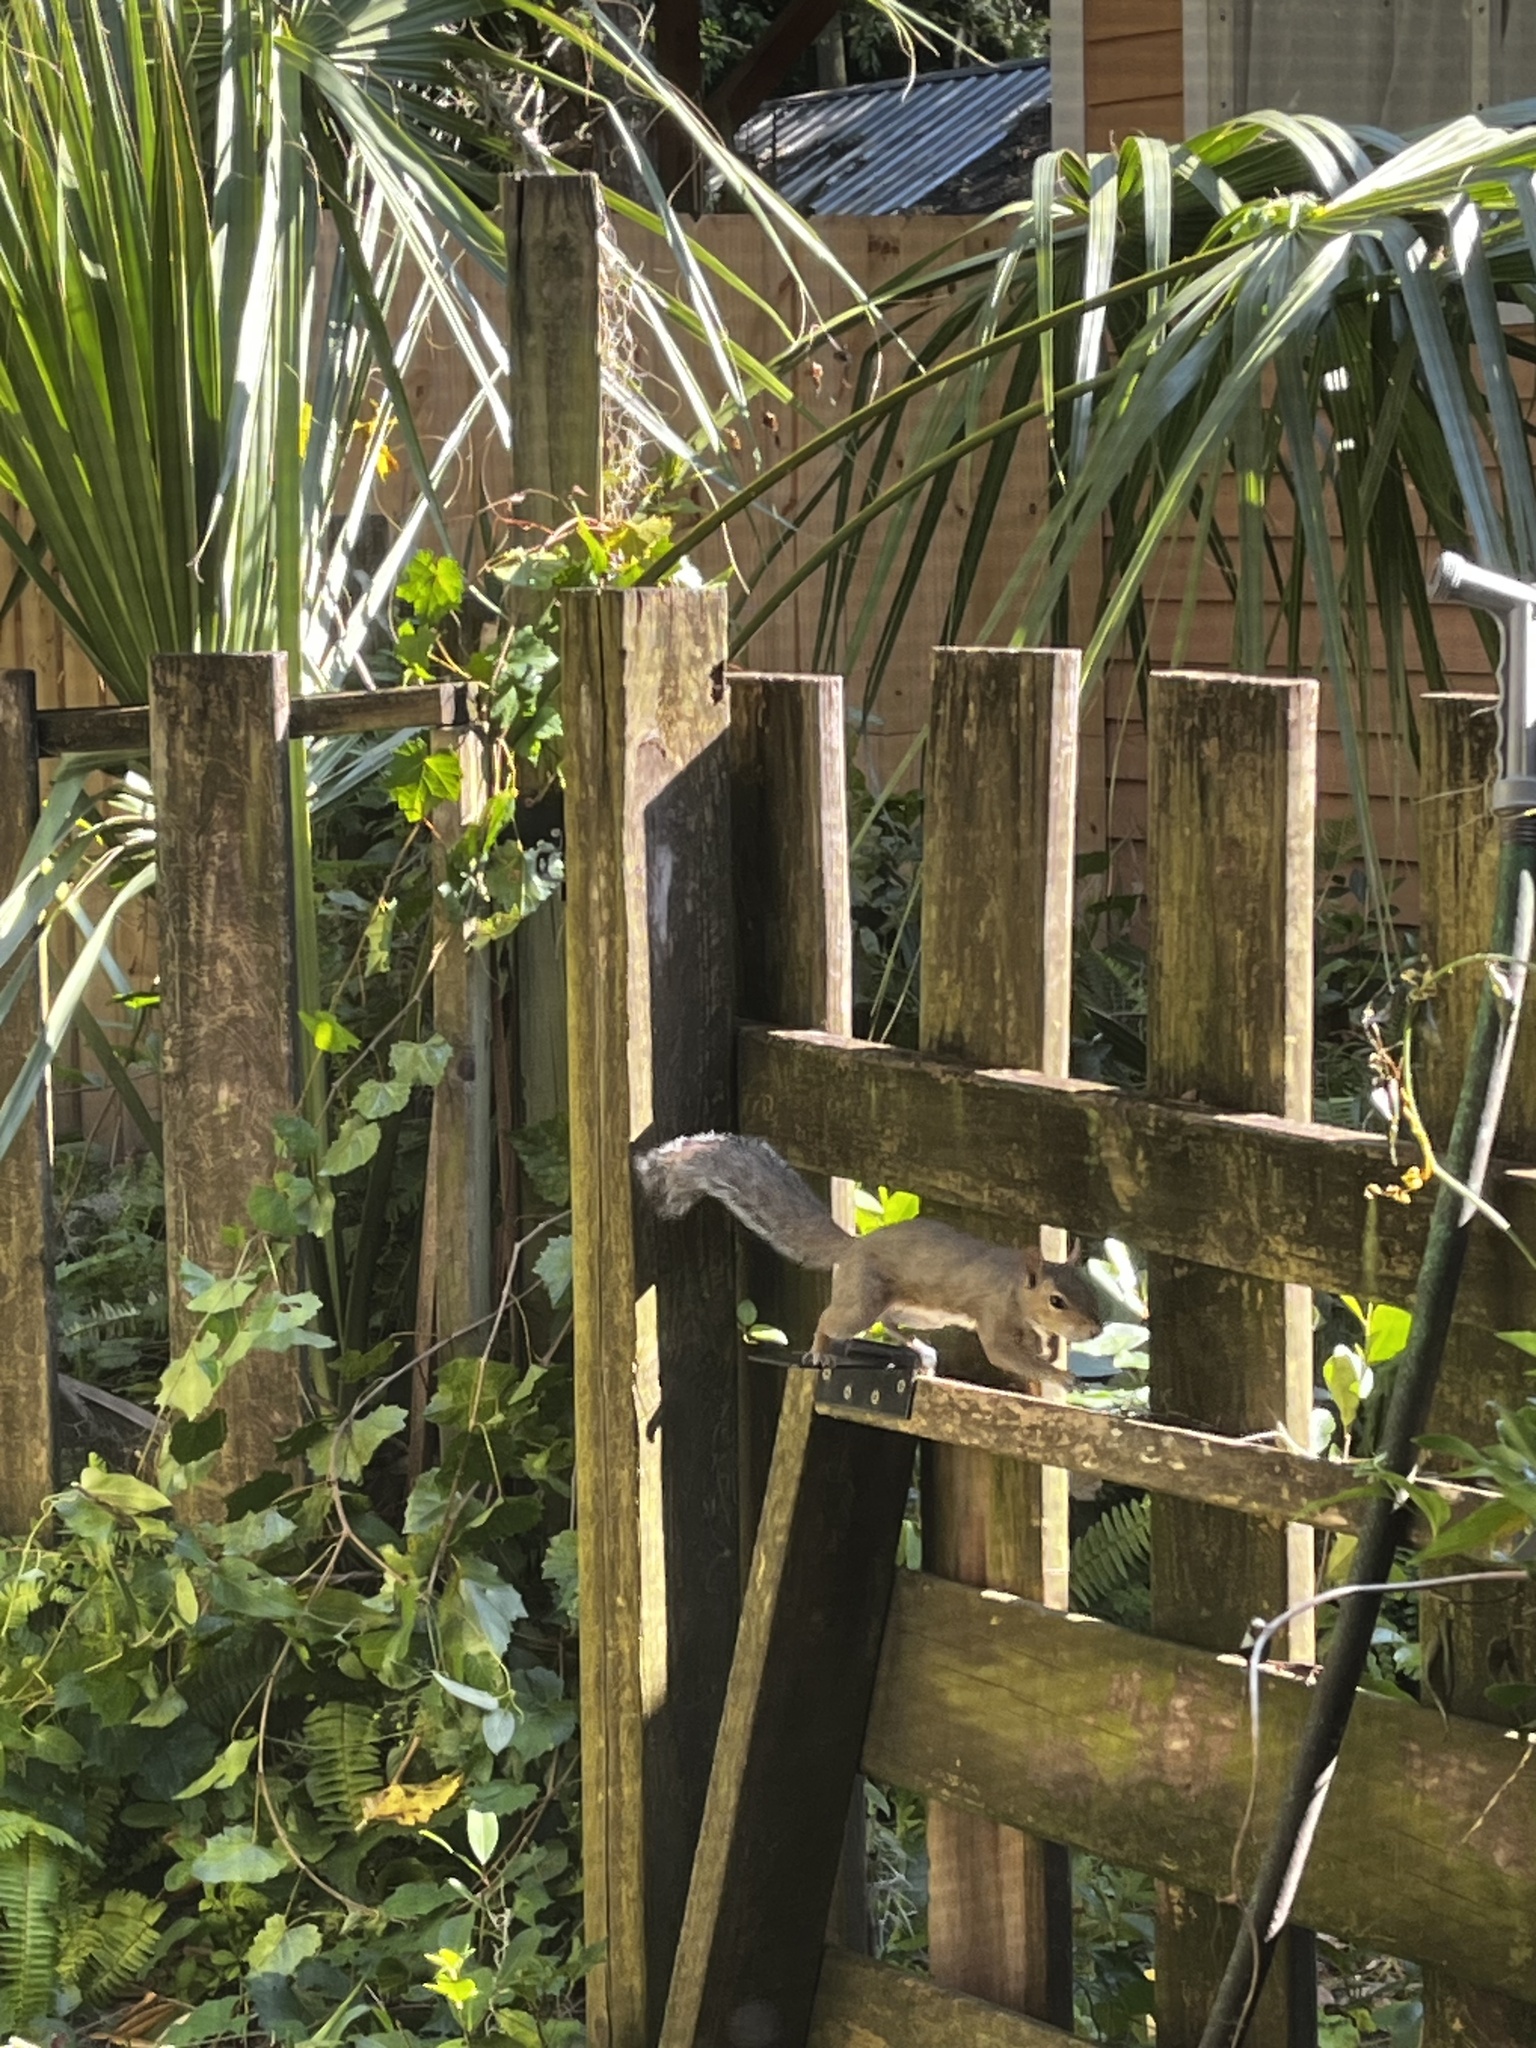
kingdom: Animalia
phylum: Chordata
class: Mammalia
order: Rodentia
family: Sciuridae
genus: Sciurus
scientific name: Sciurus carolinensis
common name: Eastern gray squirrel
